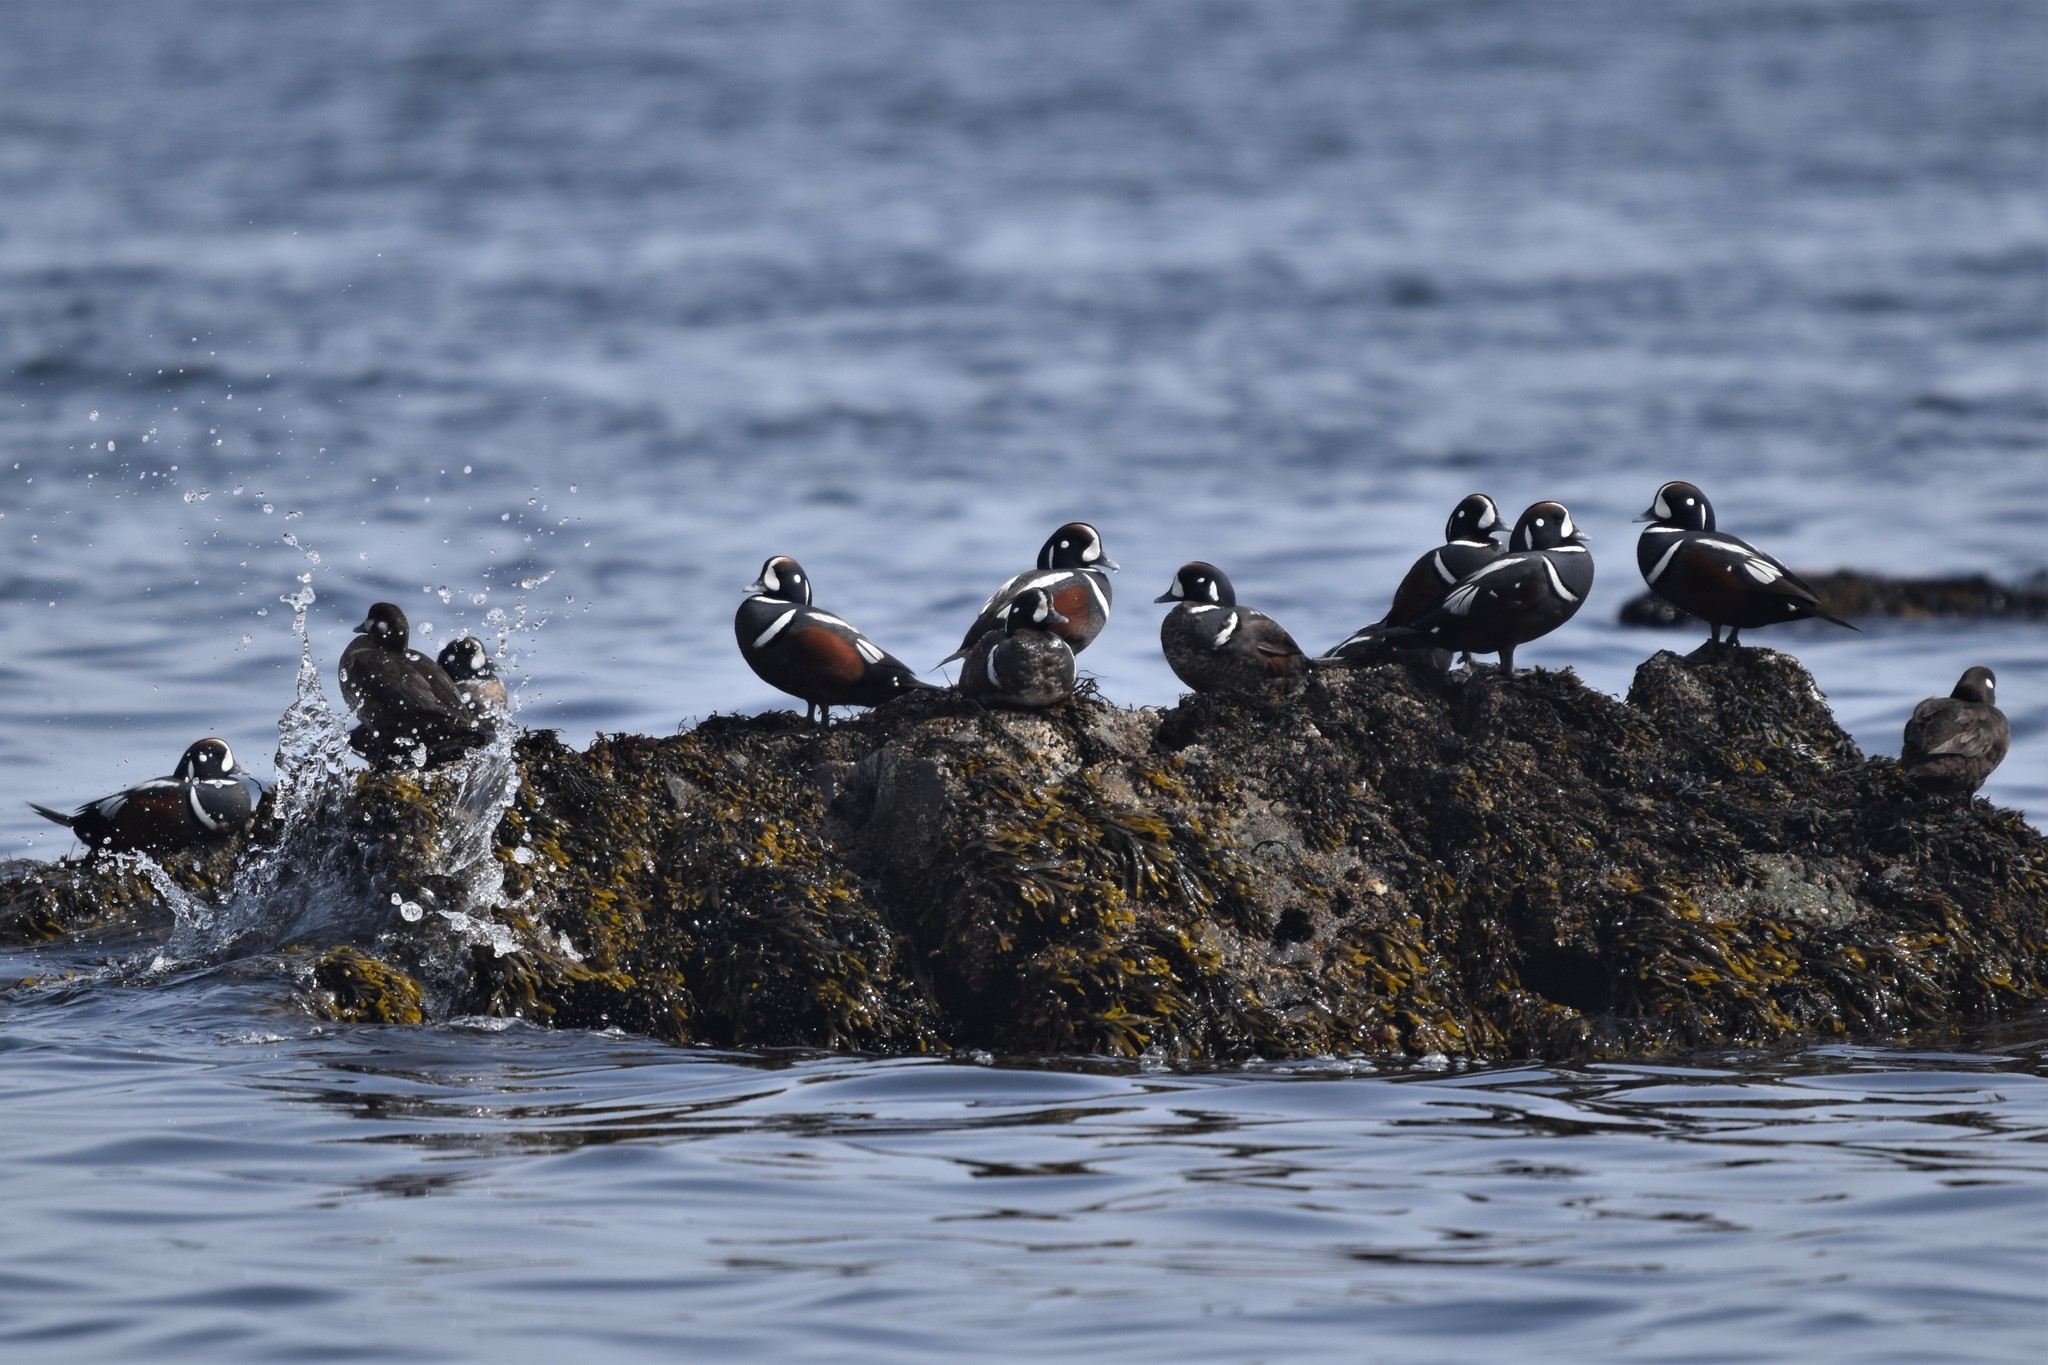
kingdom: Animalia
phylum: Chordata
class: Aves
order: Anseriformes
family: Anatidae
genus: Histrionicus
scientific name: Histrionicus histrionicus
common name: Harlequin duck
